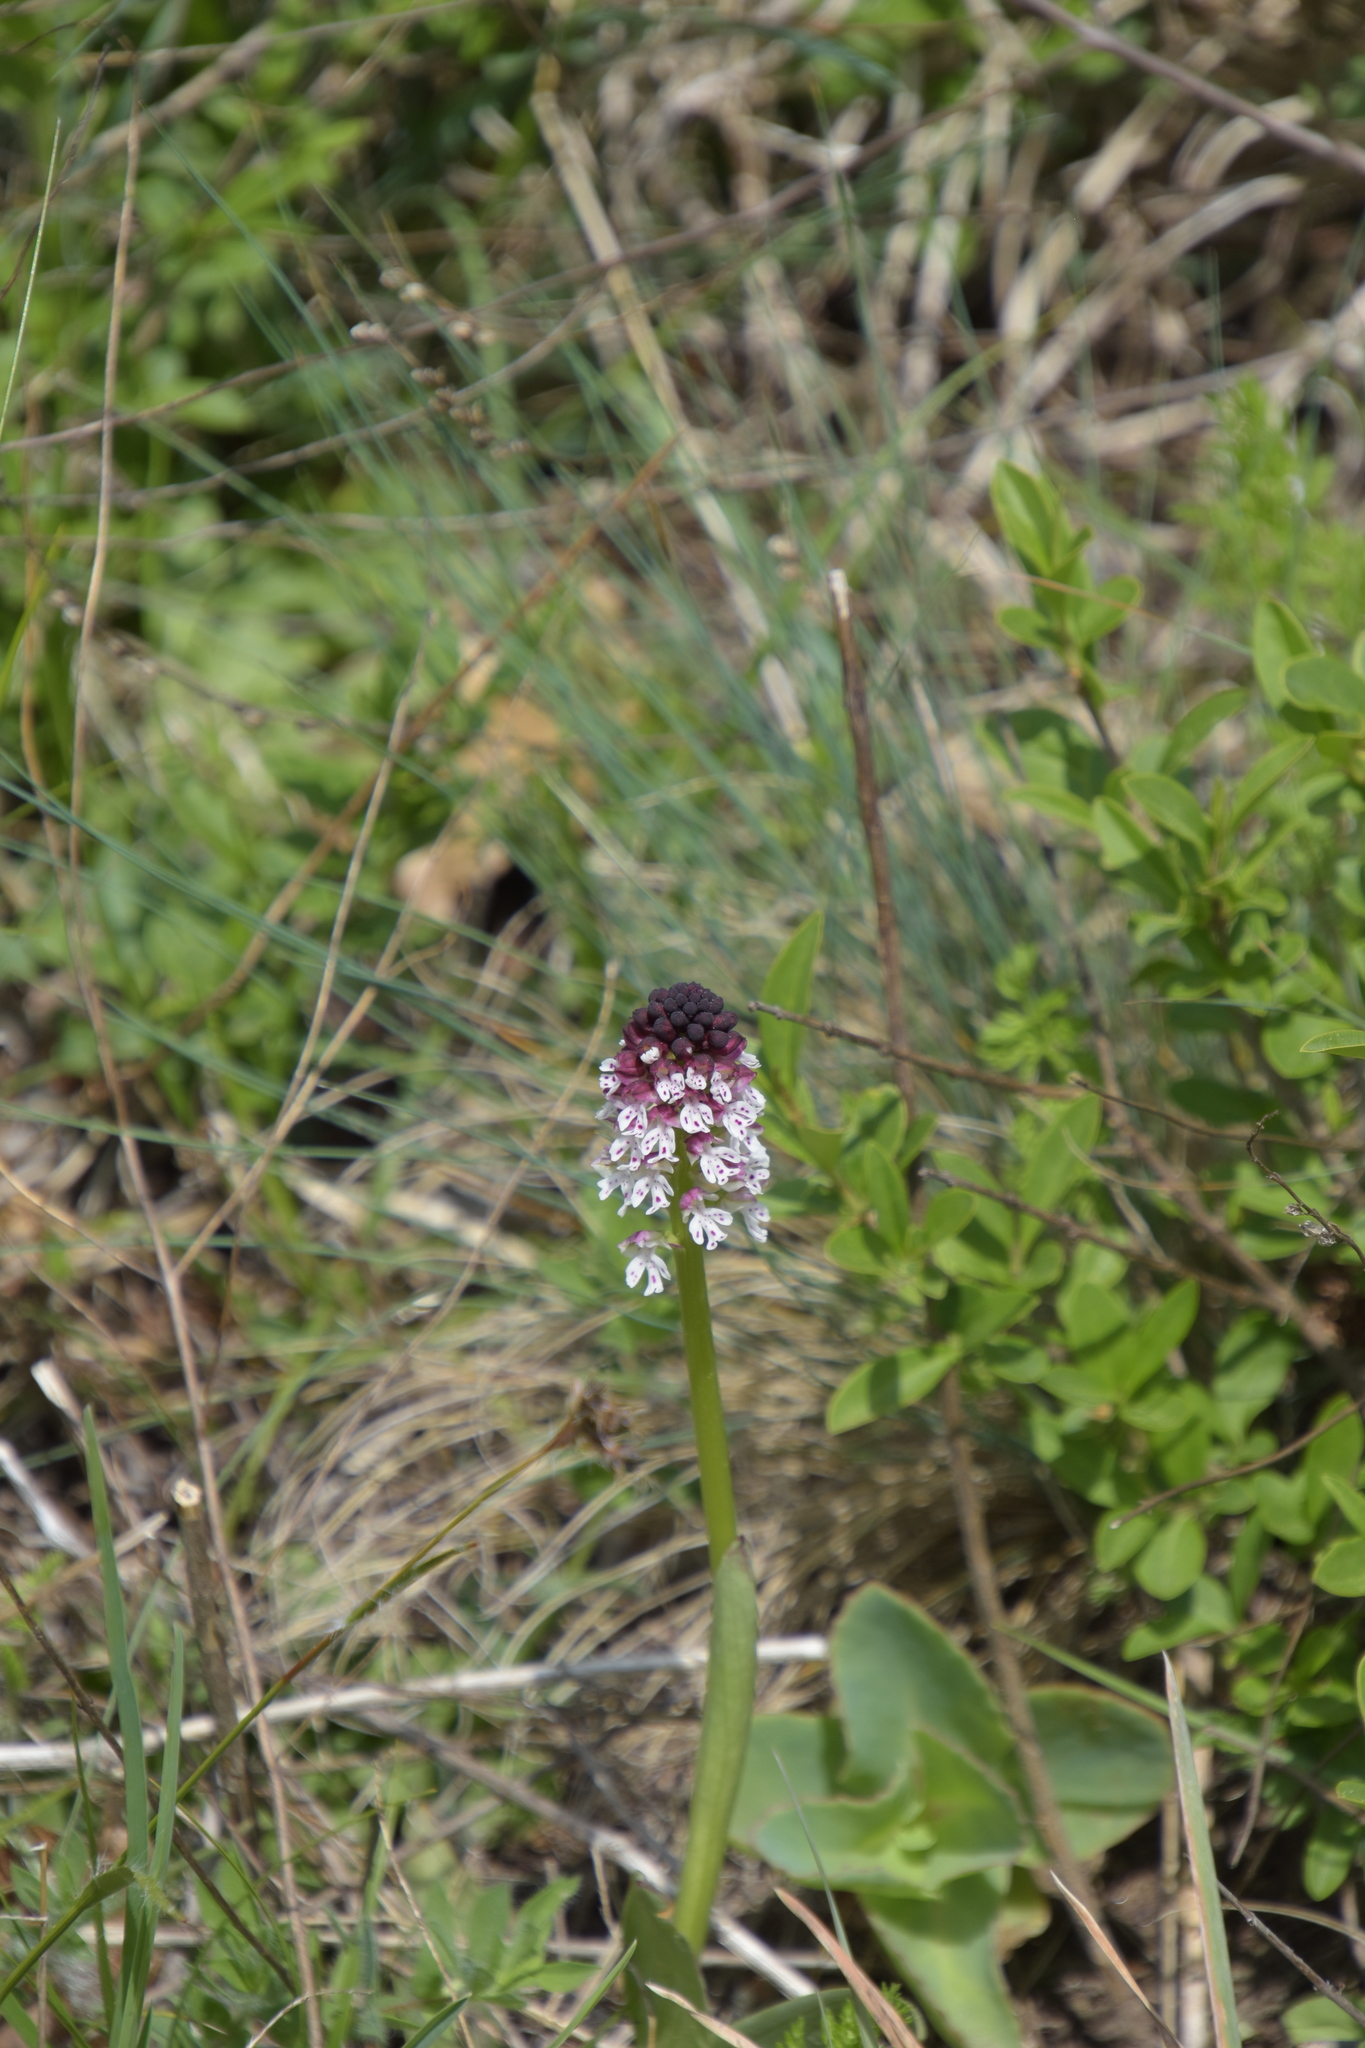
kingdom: Plantae
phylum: Tracheophyta
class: Liliopsida
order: Asparagales
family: Orchidaceae
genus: Neotinea
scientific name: Neotinea ustulata
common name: Burnt orchid
